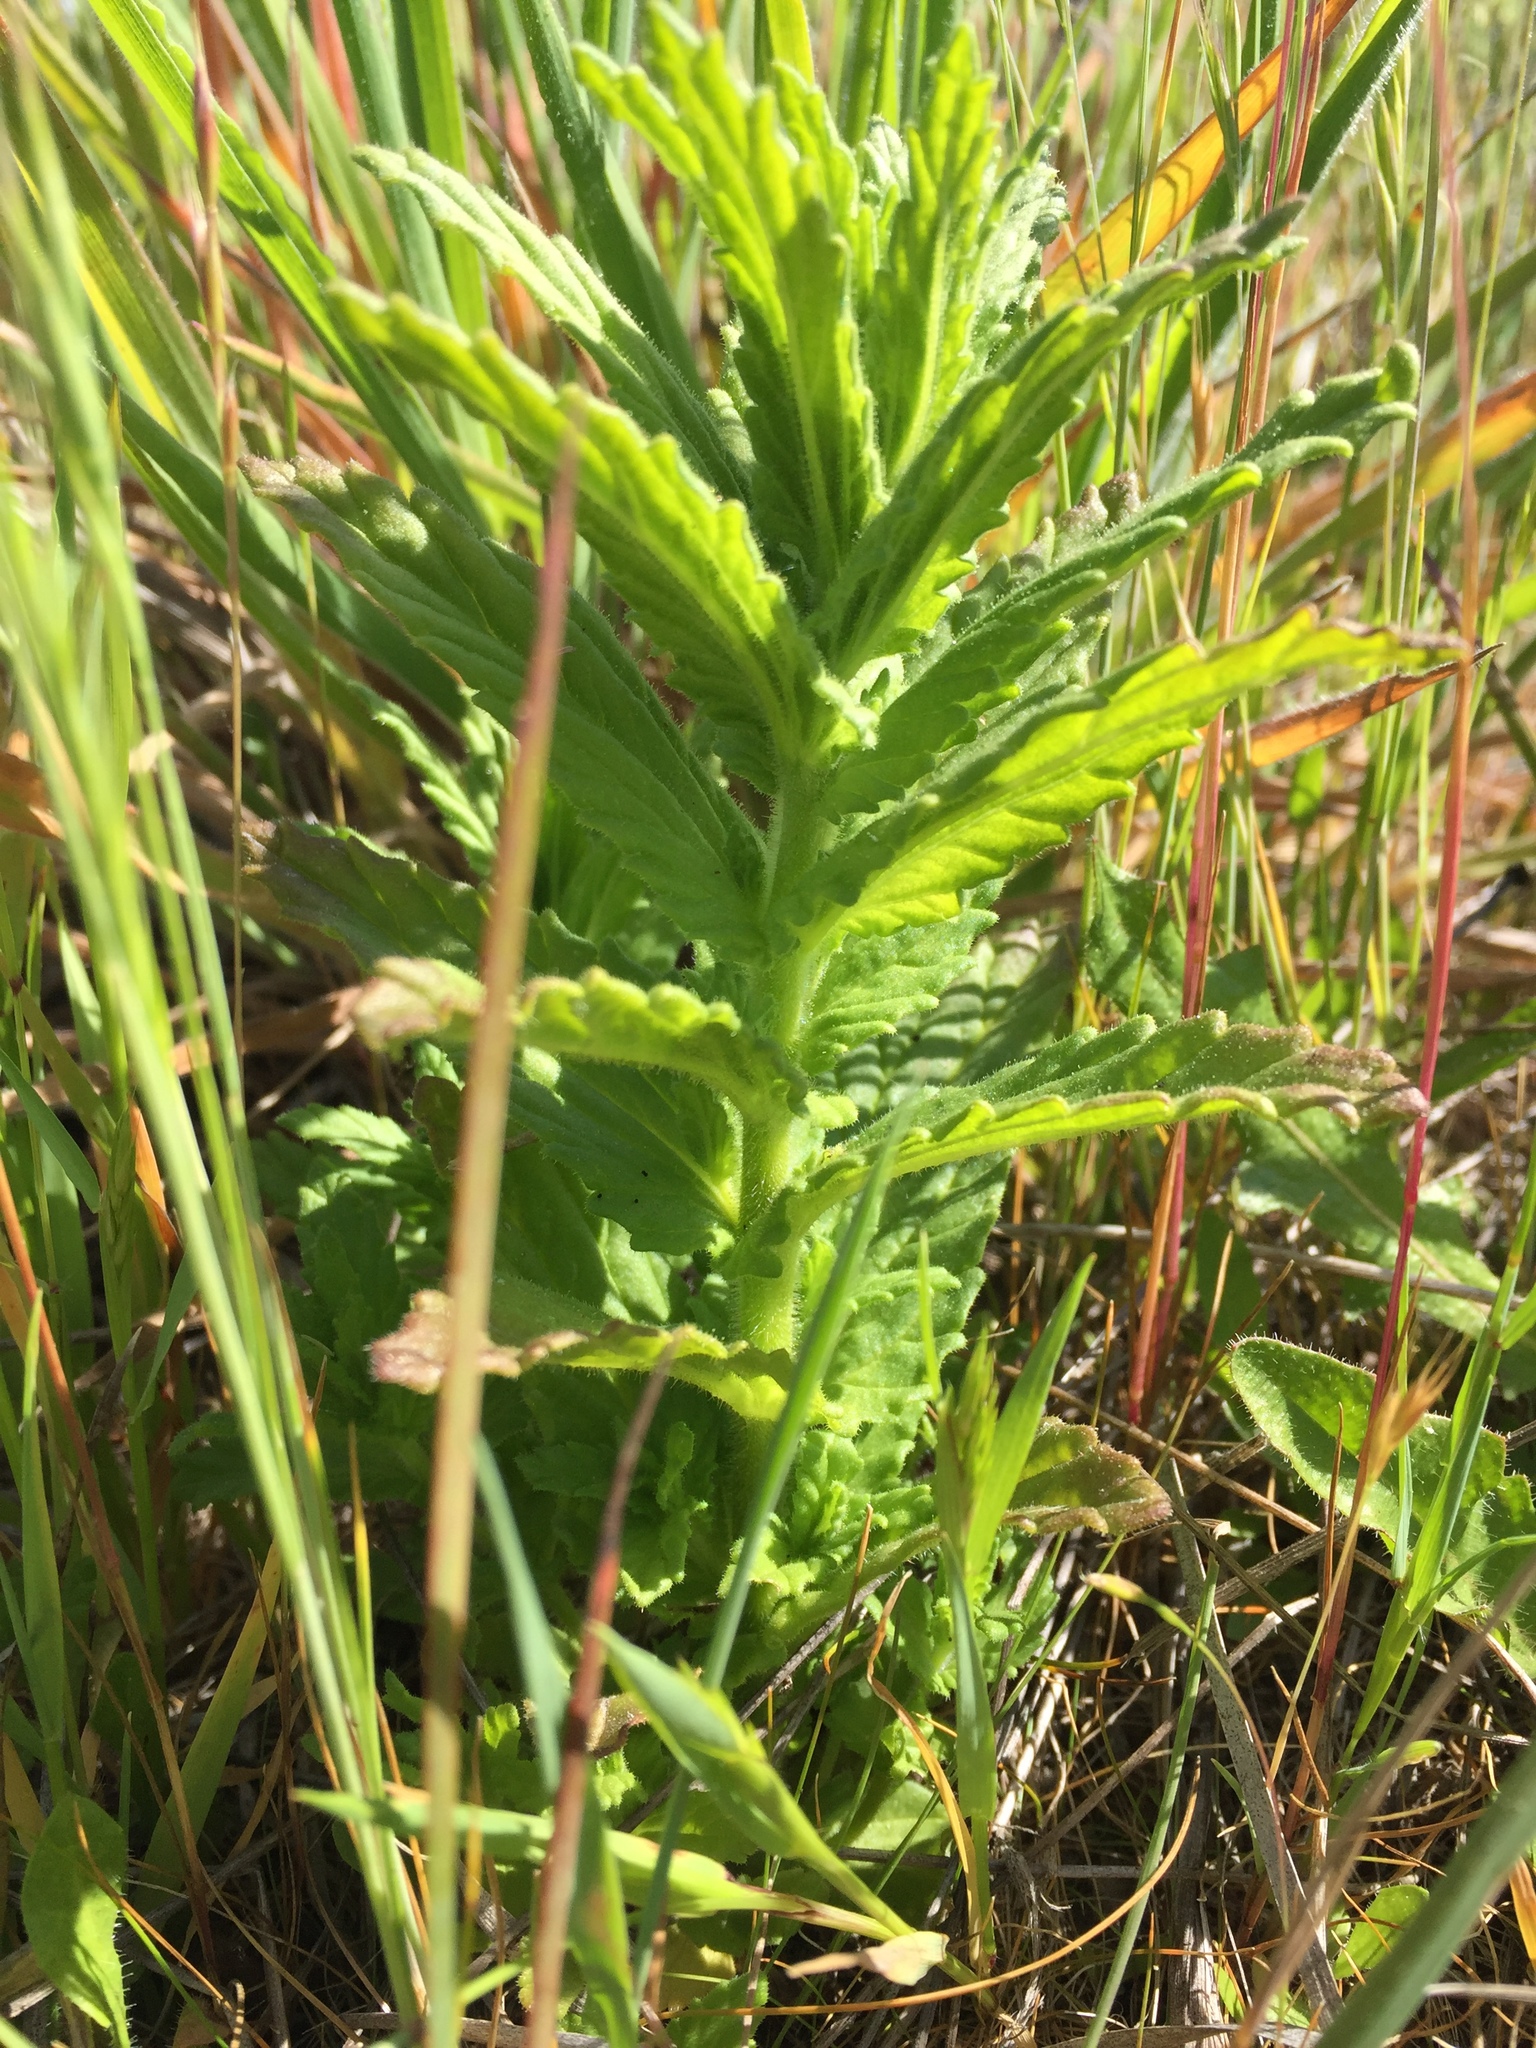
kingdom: Plantae
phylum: Tracheophyta
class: Magnoliopsida
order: Lamiales
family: Orobanchaceae
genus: Bellardia
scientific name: Bellardia viscosa
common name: Sticky parentucellia
